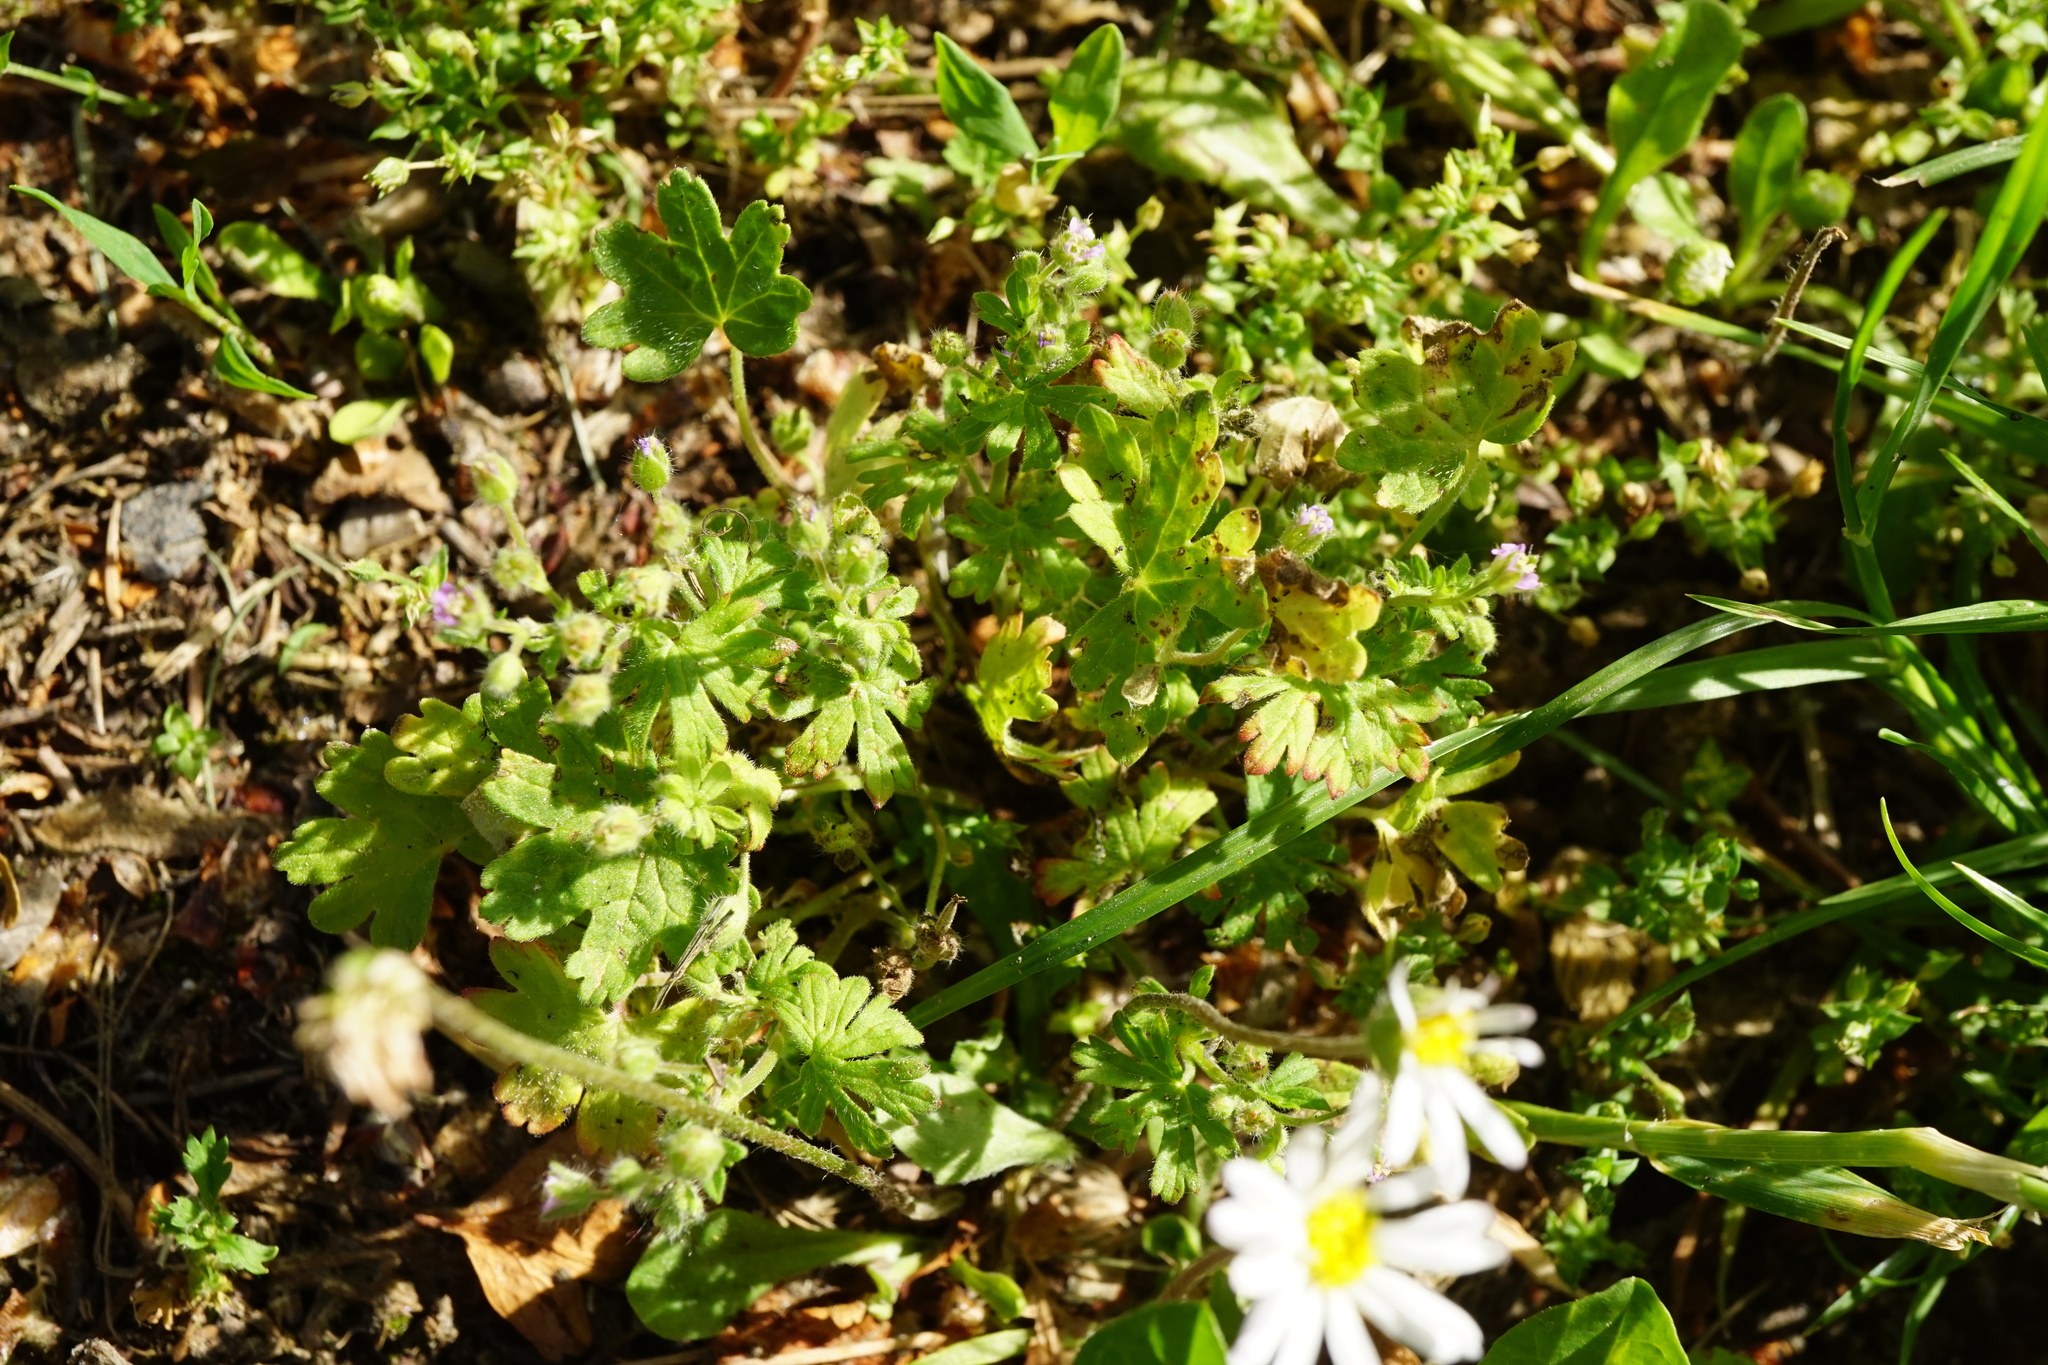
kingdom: Plantae
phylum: Tracheophyta
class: Magnoliopsida
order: Geraniales
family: Geraniaceae
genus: Geranium
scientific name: Geranium pusillum
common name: Small geranium
